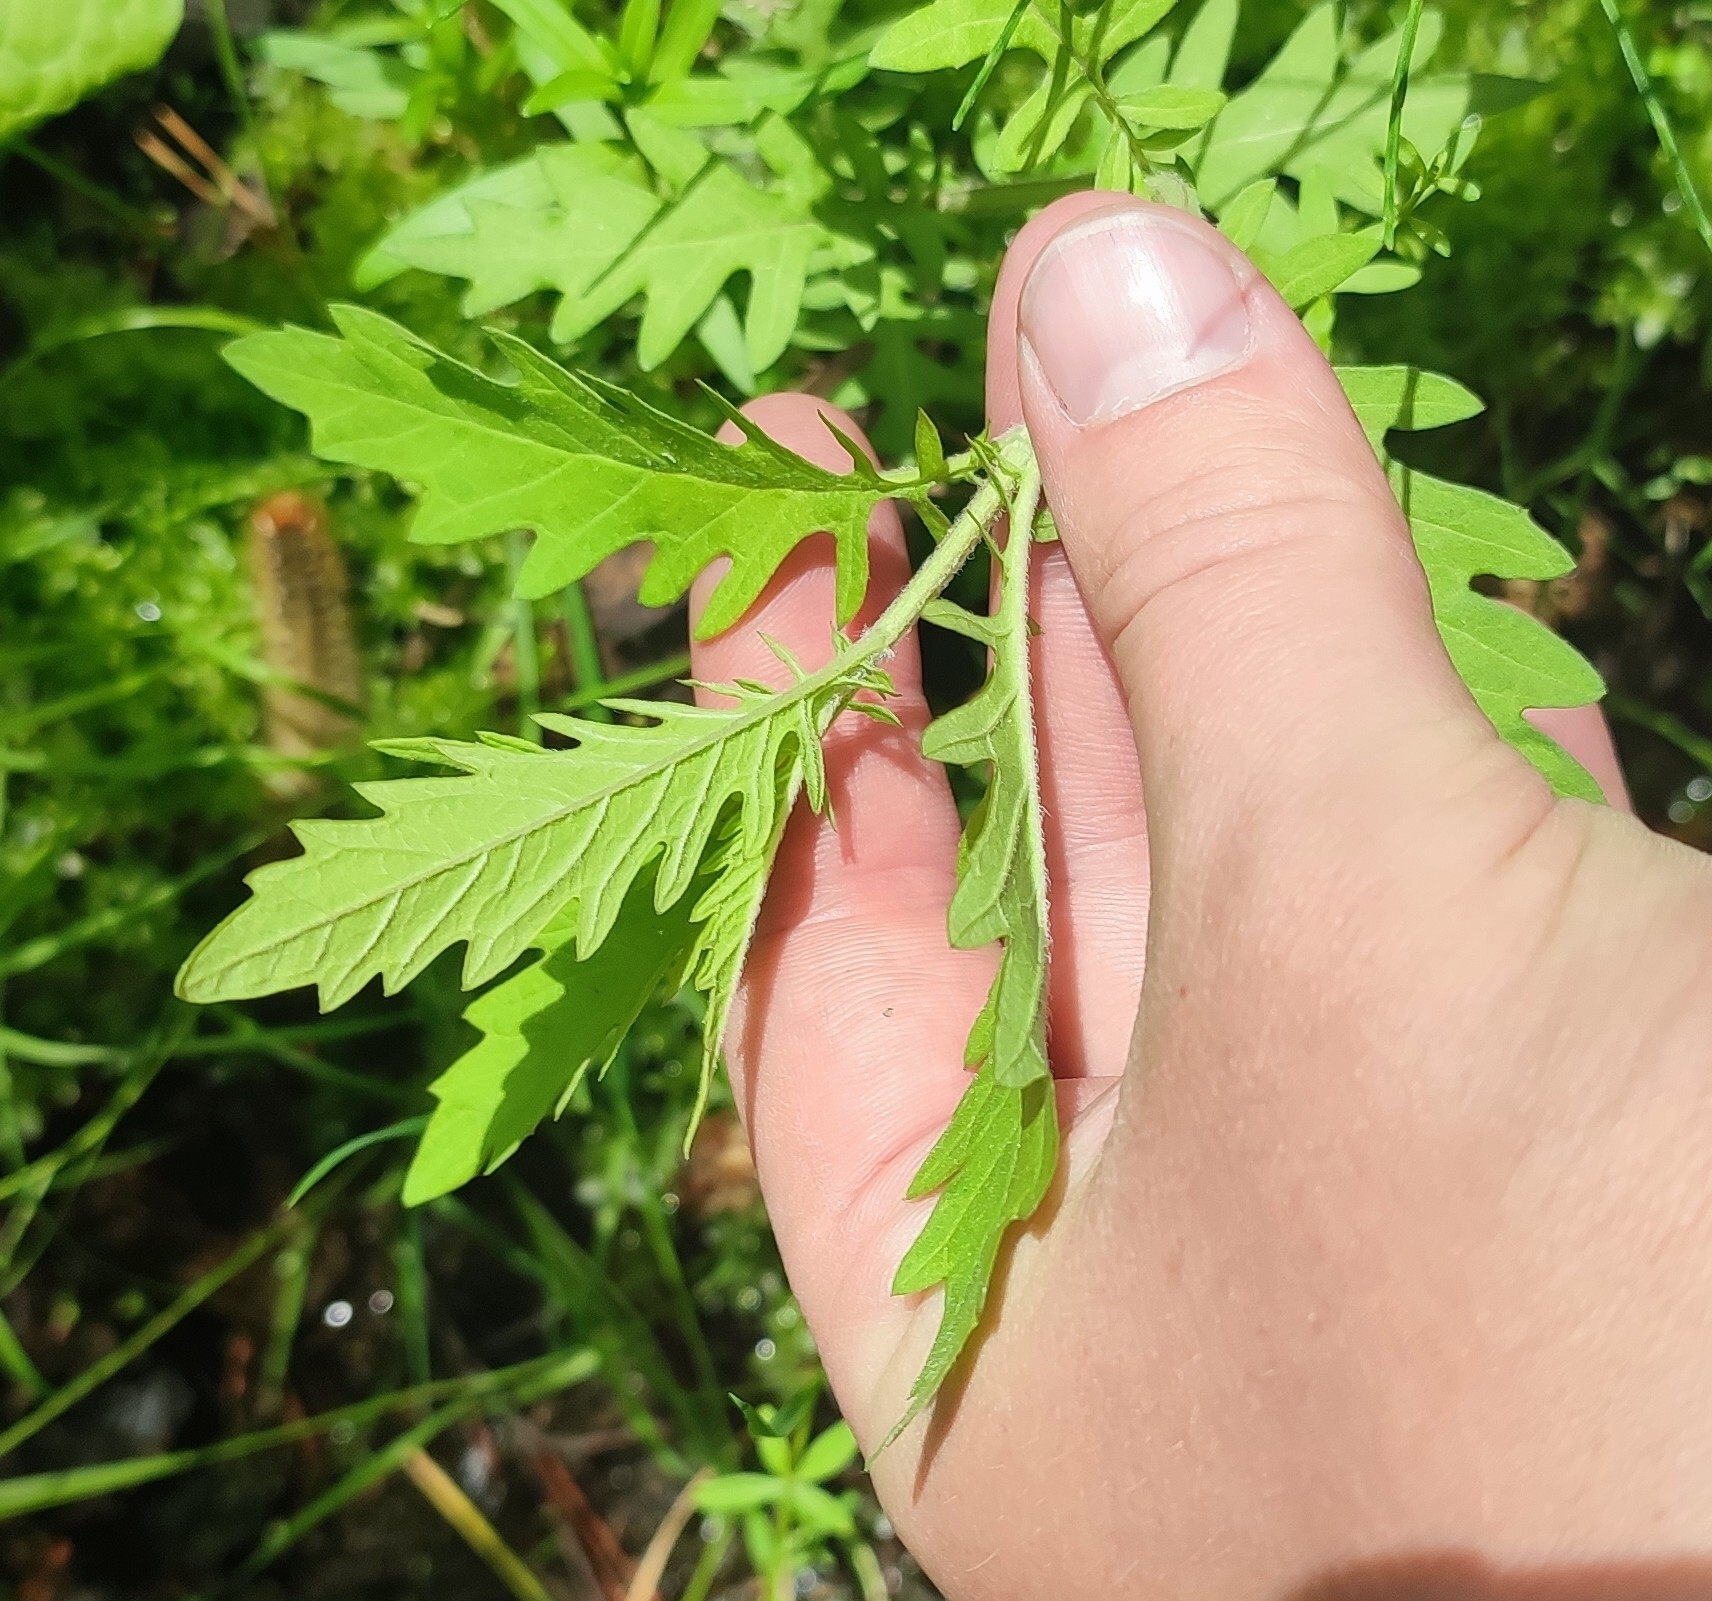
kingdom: Plantae
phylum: Tracheophyta
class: Magnoliopsida
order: Lamiales
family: Lamiaceae
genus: Lycopus
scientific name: Lycopus europaeus
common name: European bugleweed
